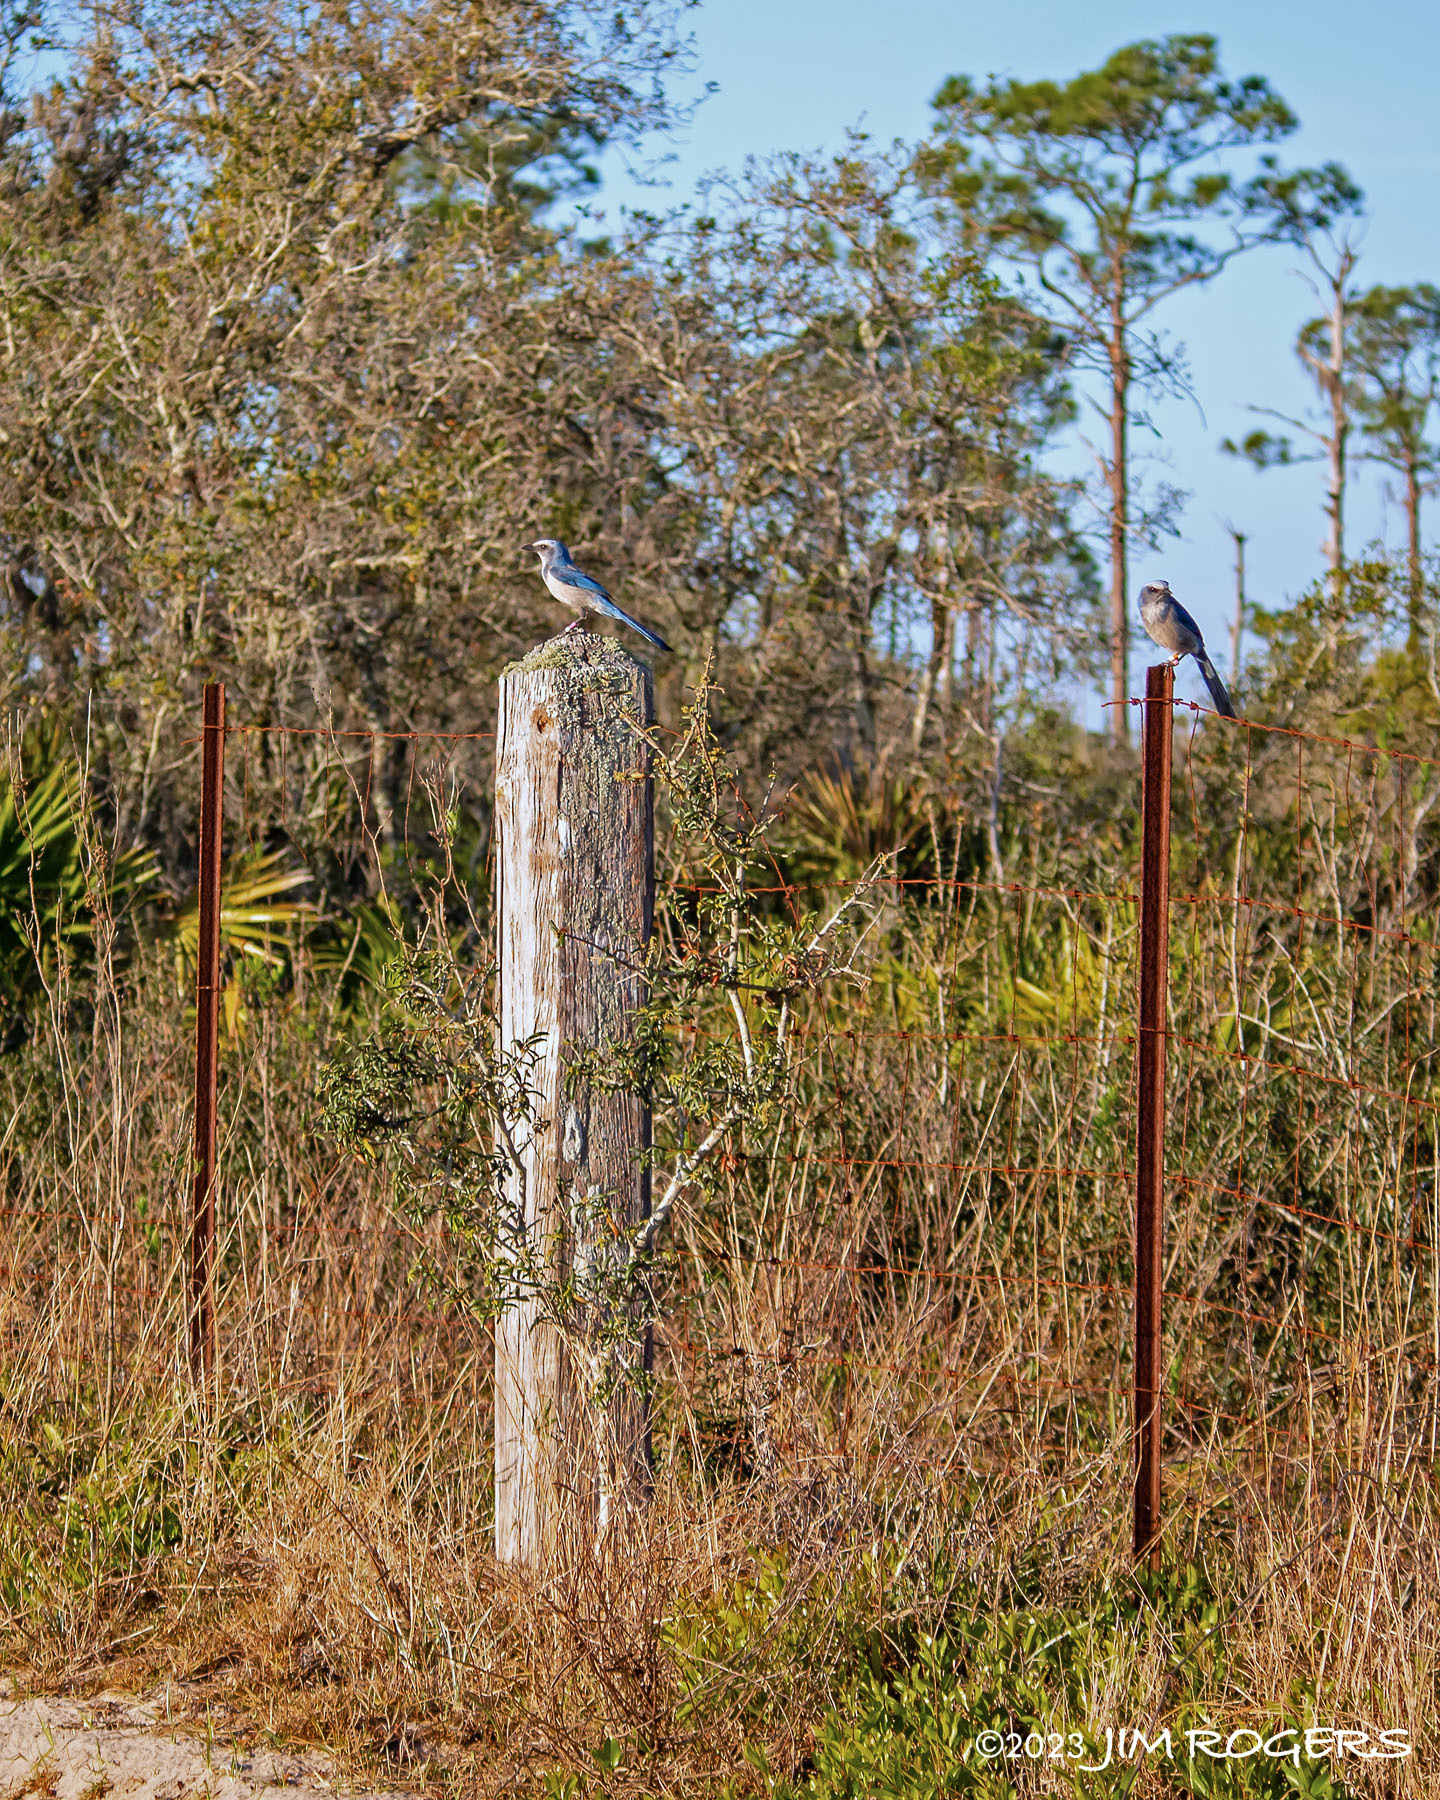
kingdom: Animalia
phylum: Chordata
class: Aves
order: Passeriformes
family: Corvidae
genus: Aphelocoma
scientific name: Aphelocoma coerulescens
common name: Florida scrub jay
